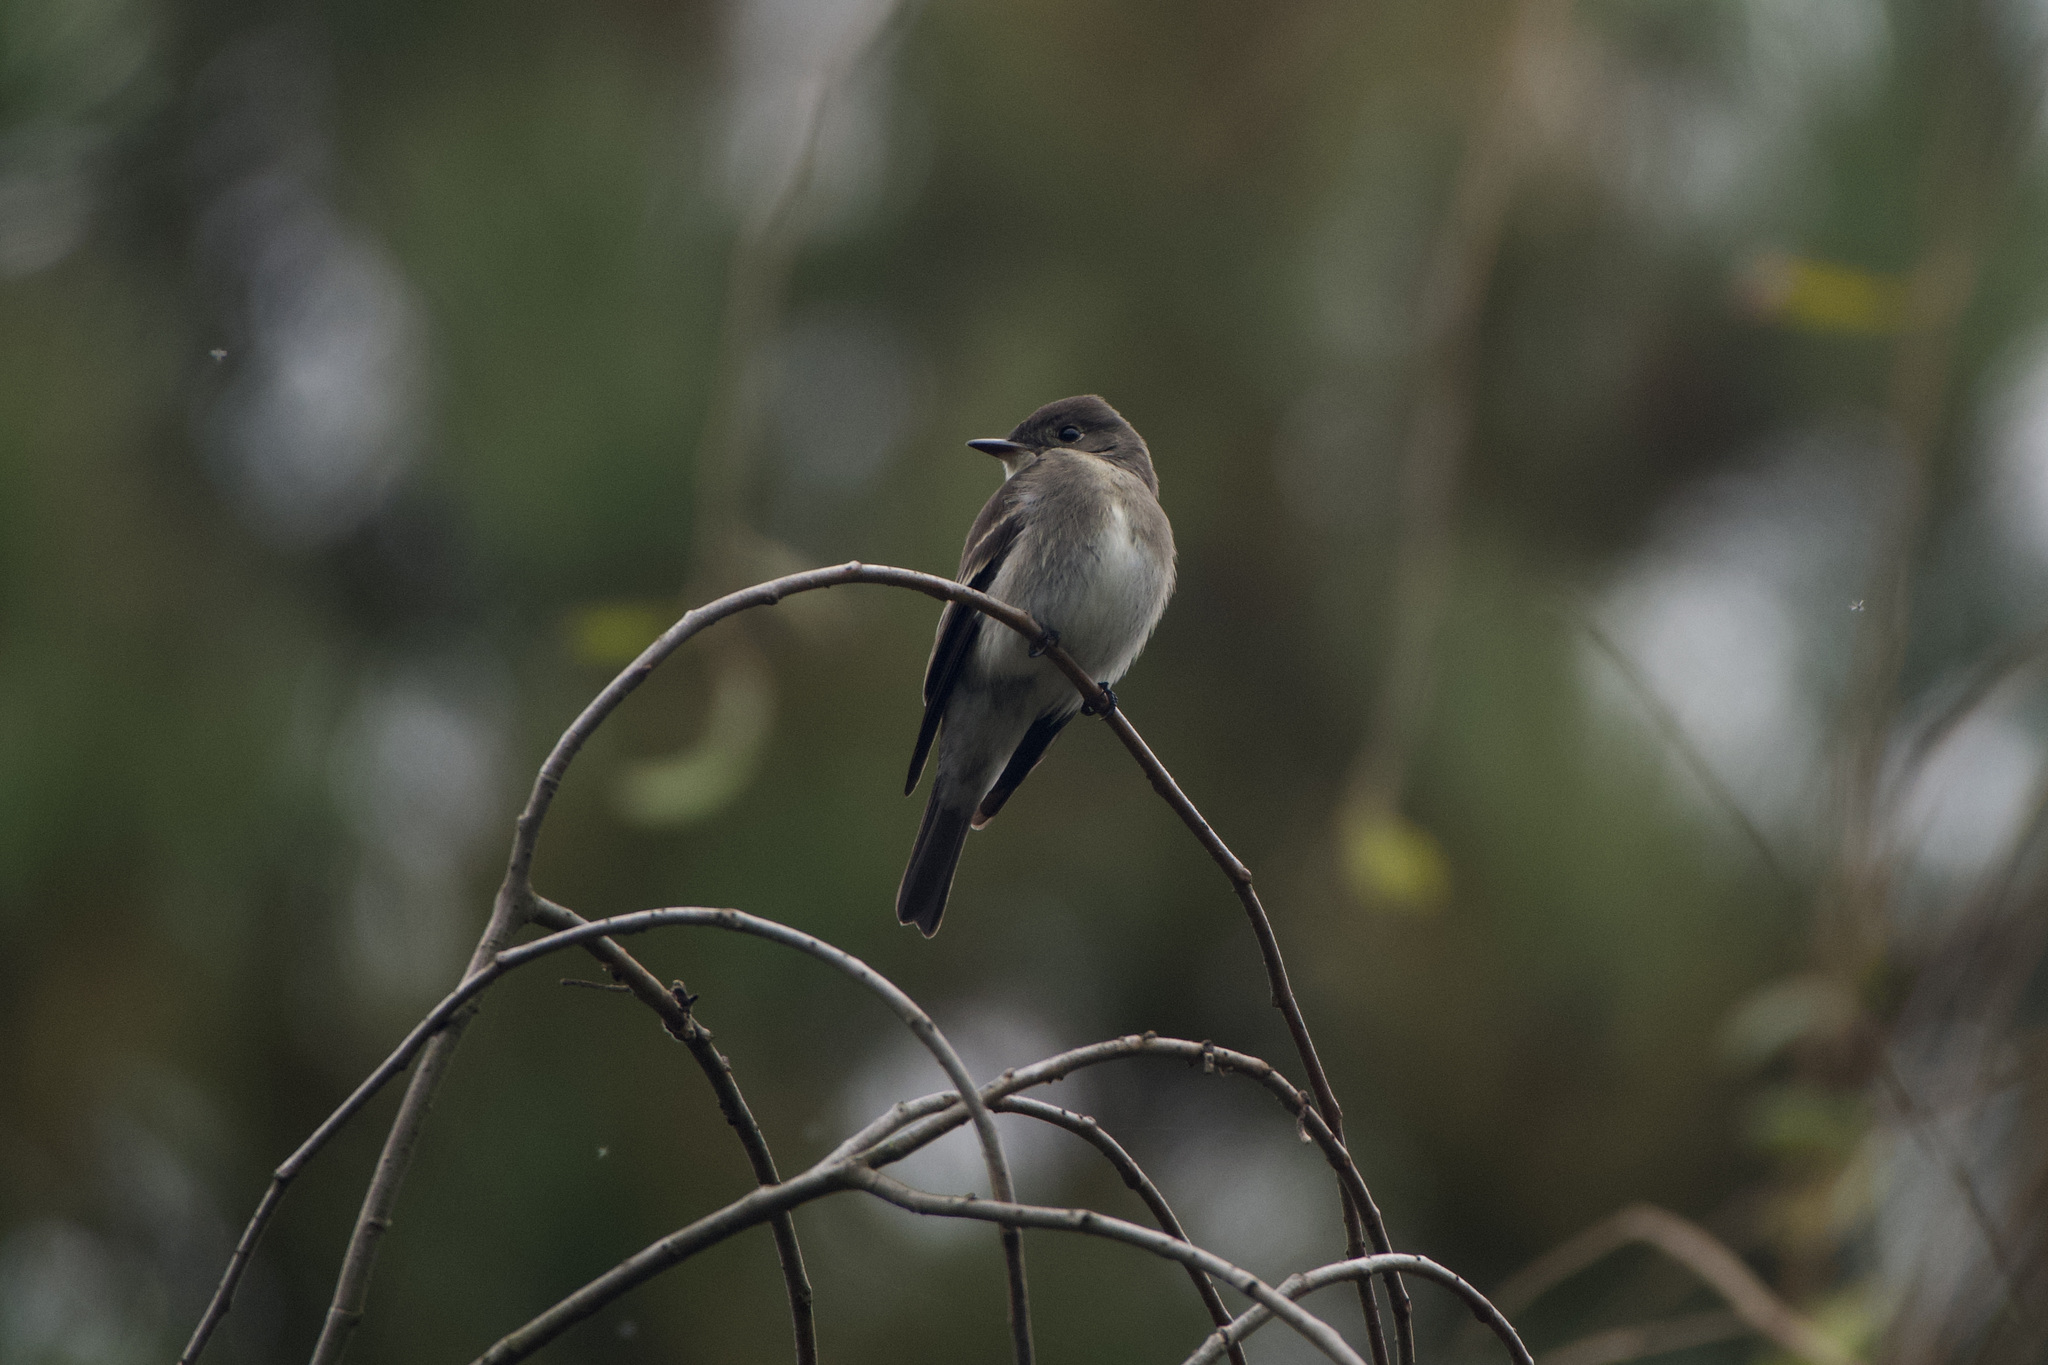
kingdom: Animalia
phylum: Chordata
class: Aves
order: Passeriformes
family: Tyrannidae
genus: Contopus
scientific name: Contopus sordidulus
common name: Western wood-pewee
